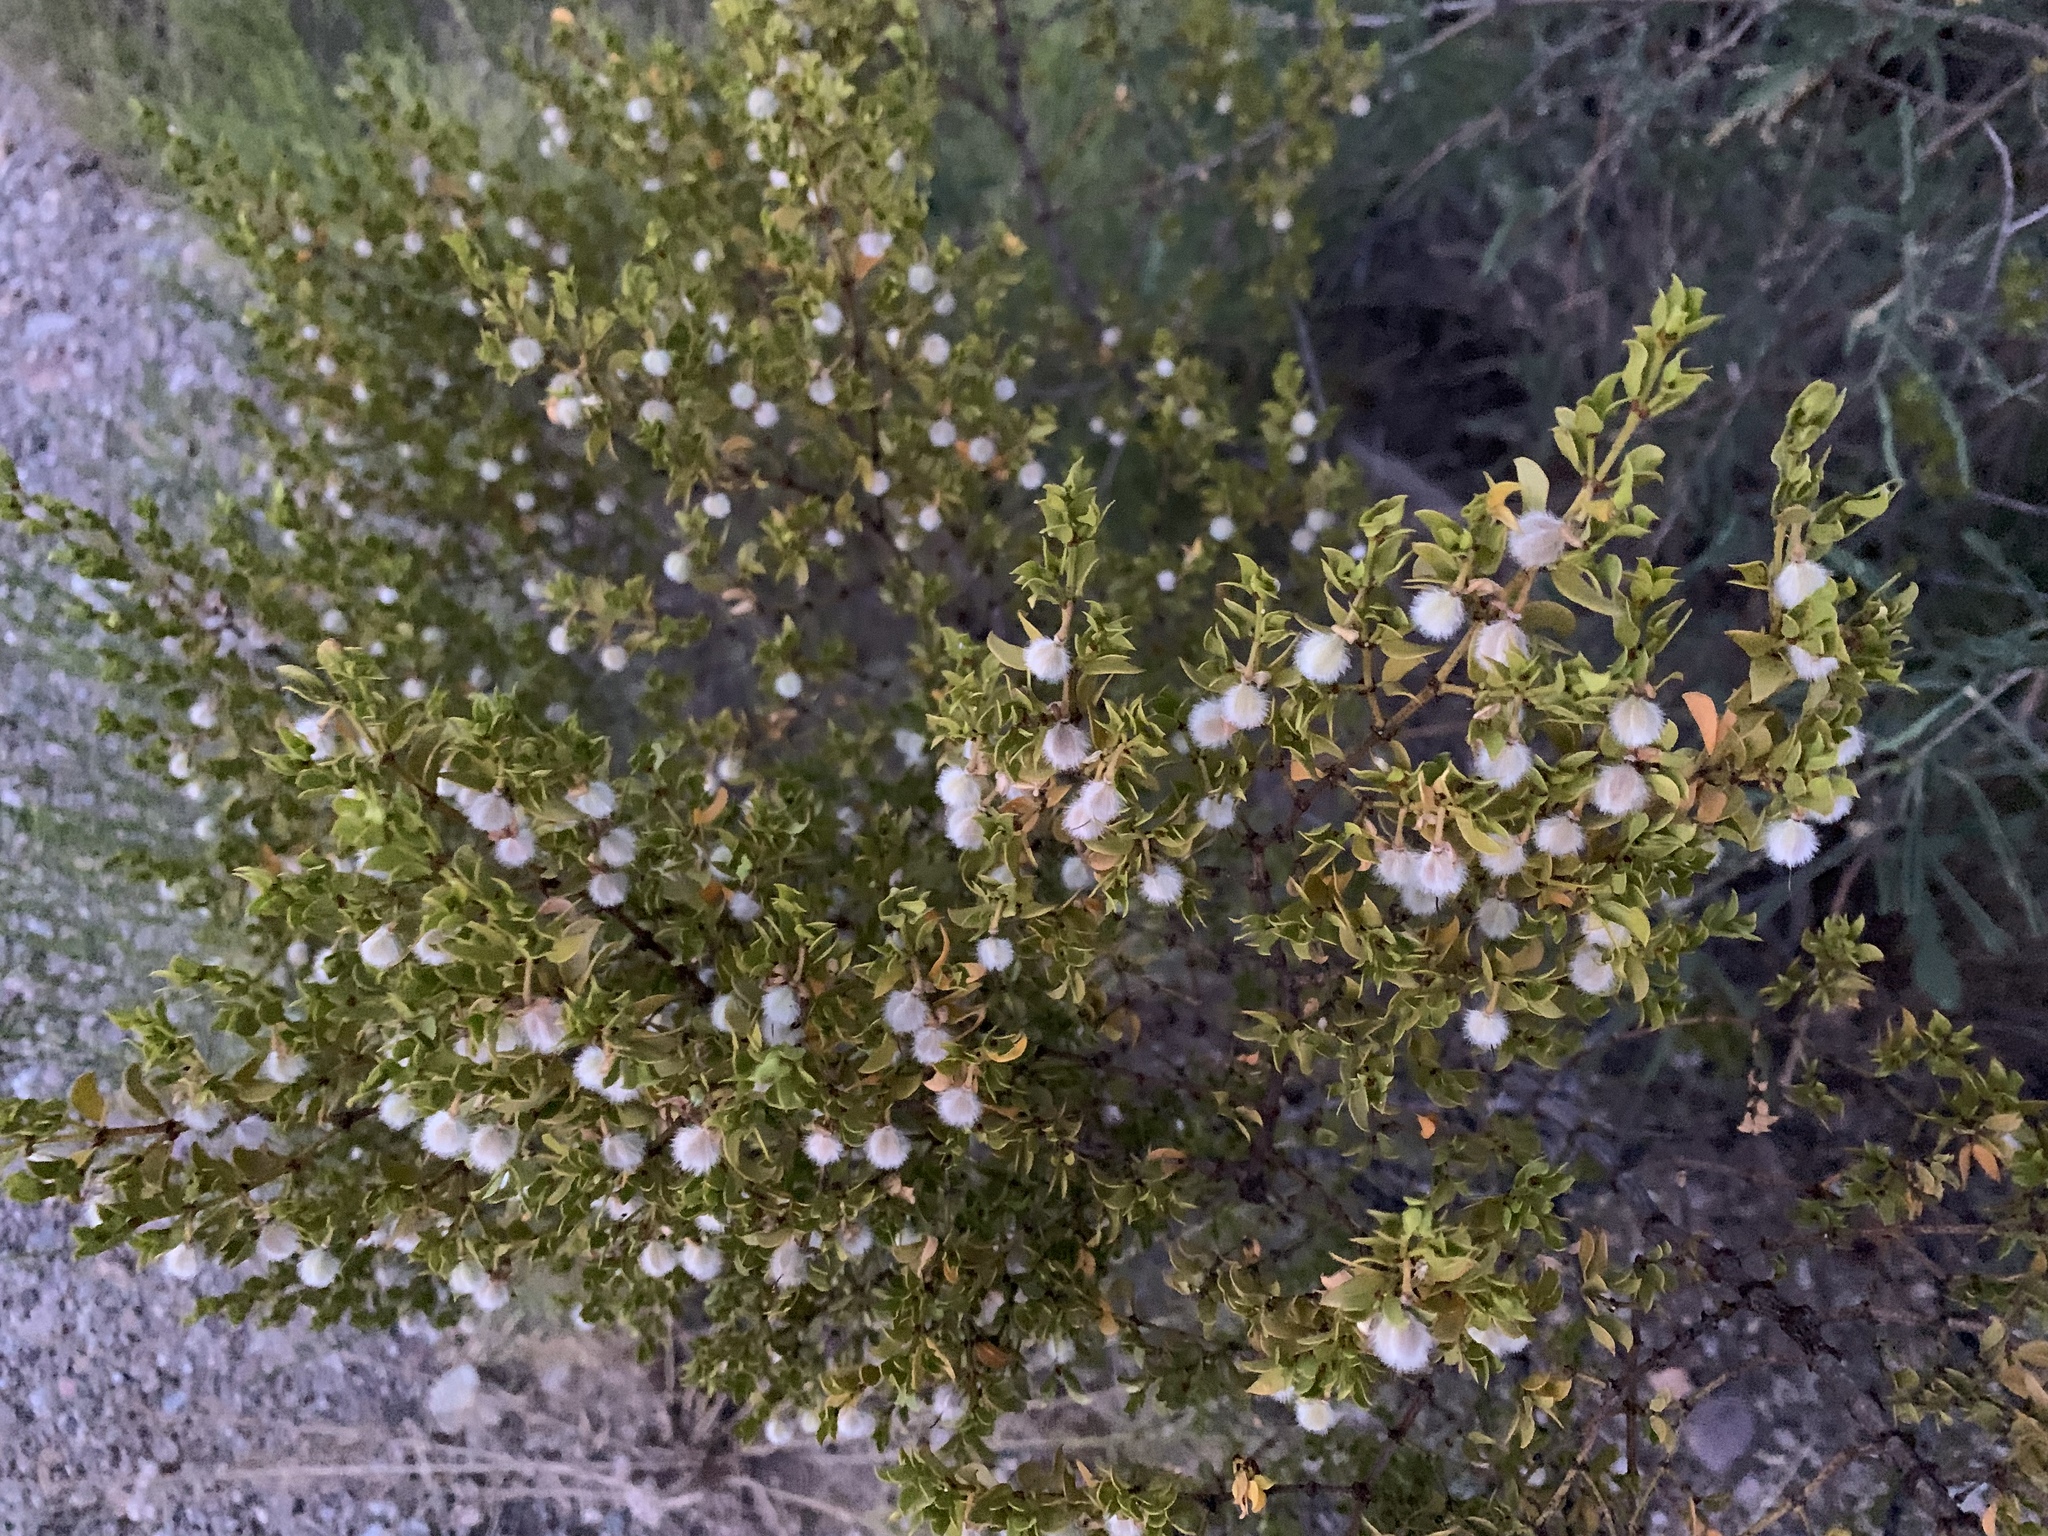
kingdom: Plantae
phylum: Tracheophyta
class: Magnoliopsida
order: Zygophyllales
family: Zygophyllaceae
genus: Larrea
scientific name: Larrea tridentata
